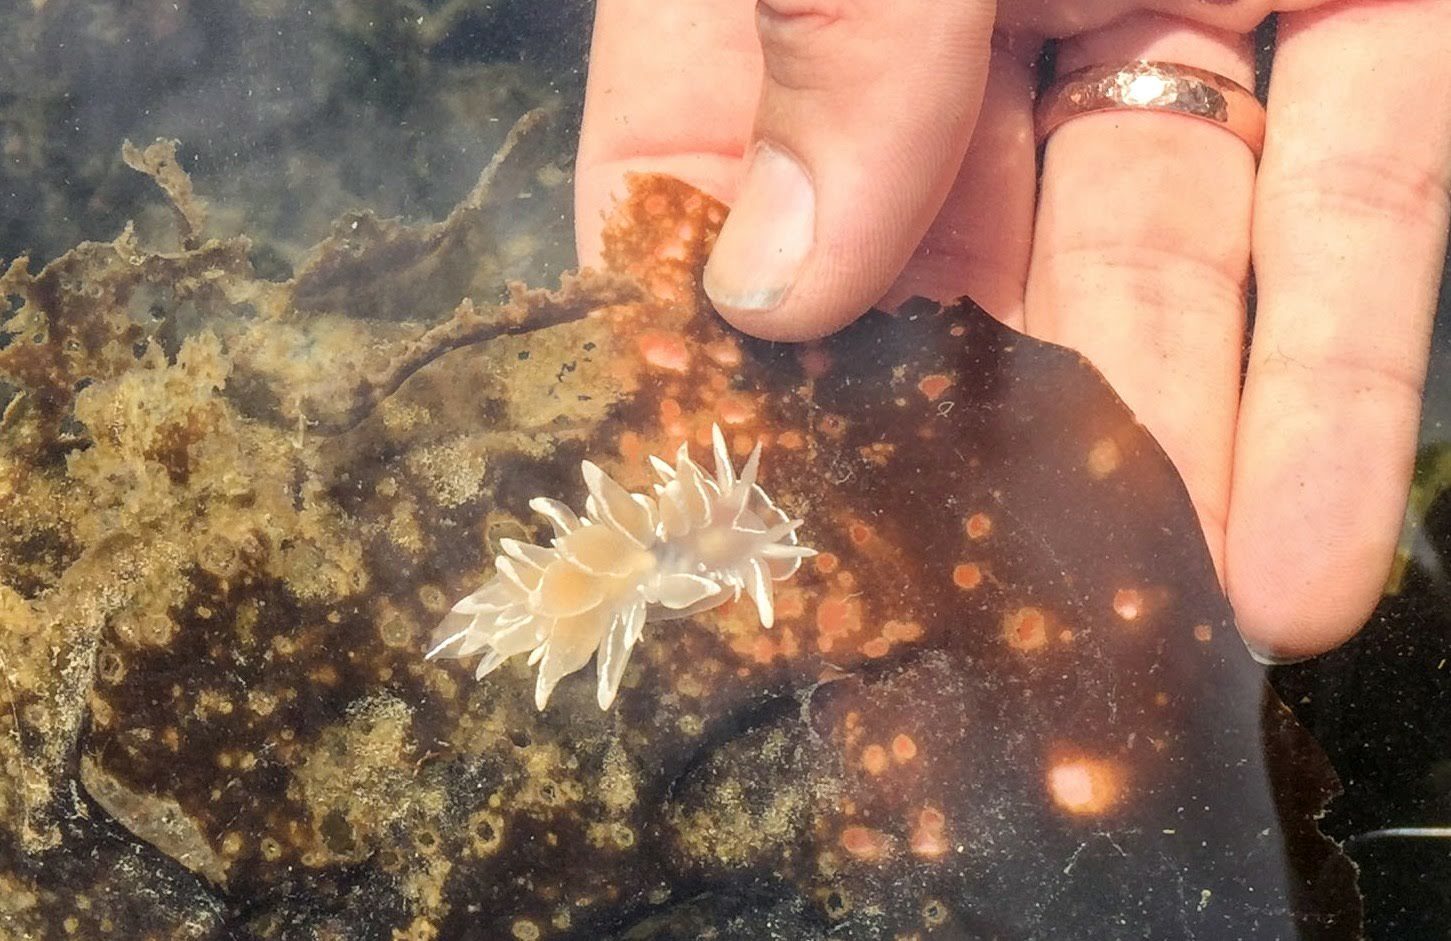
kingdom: Animalia
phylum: Mollusca
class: Gastropoda
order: Nudibranchia
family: Dironidae
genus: Dirona
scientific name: Dirona albolineata
